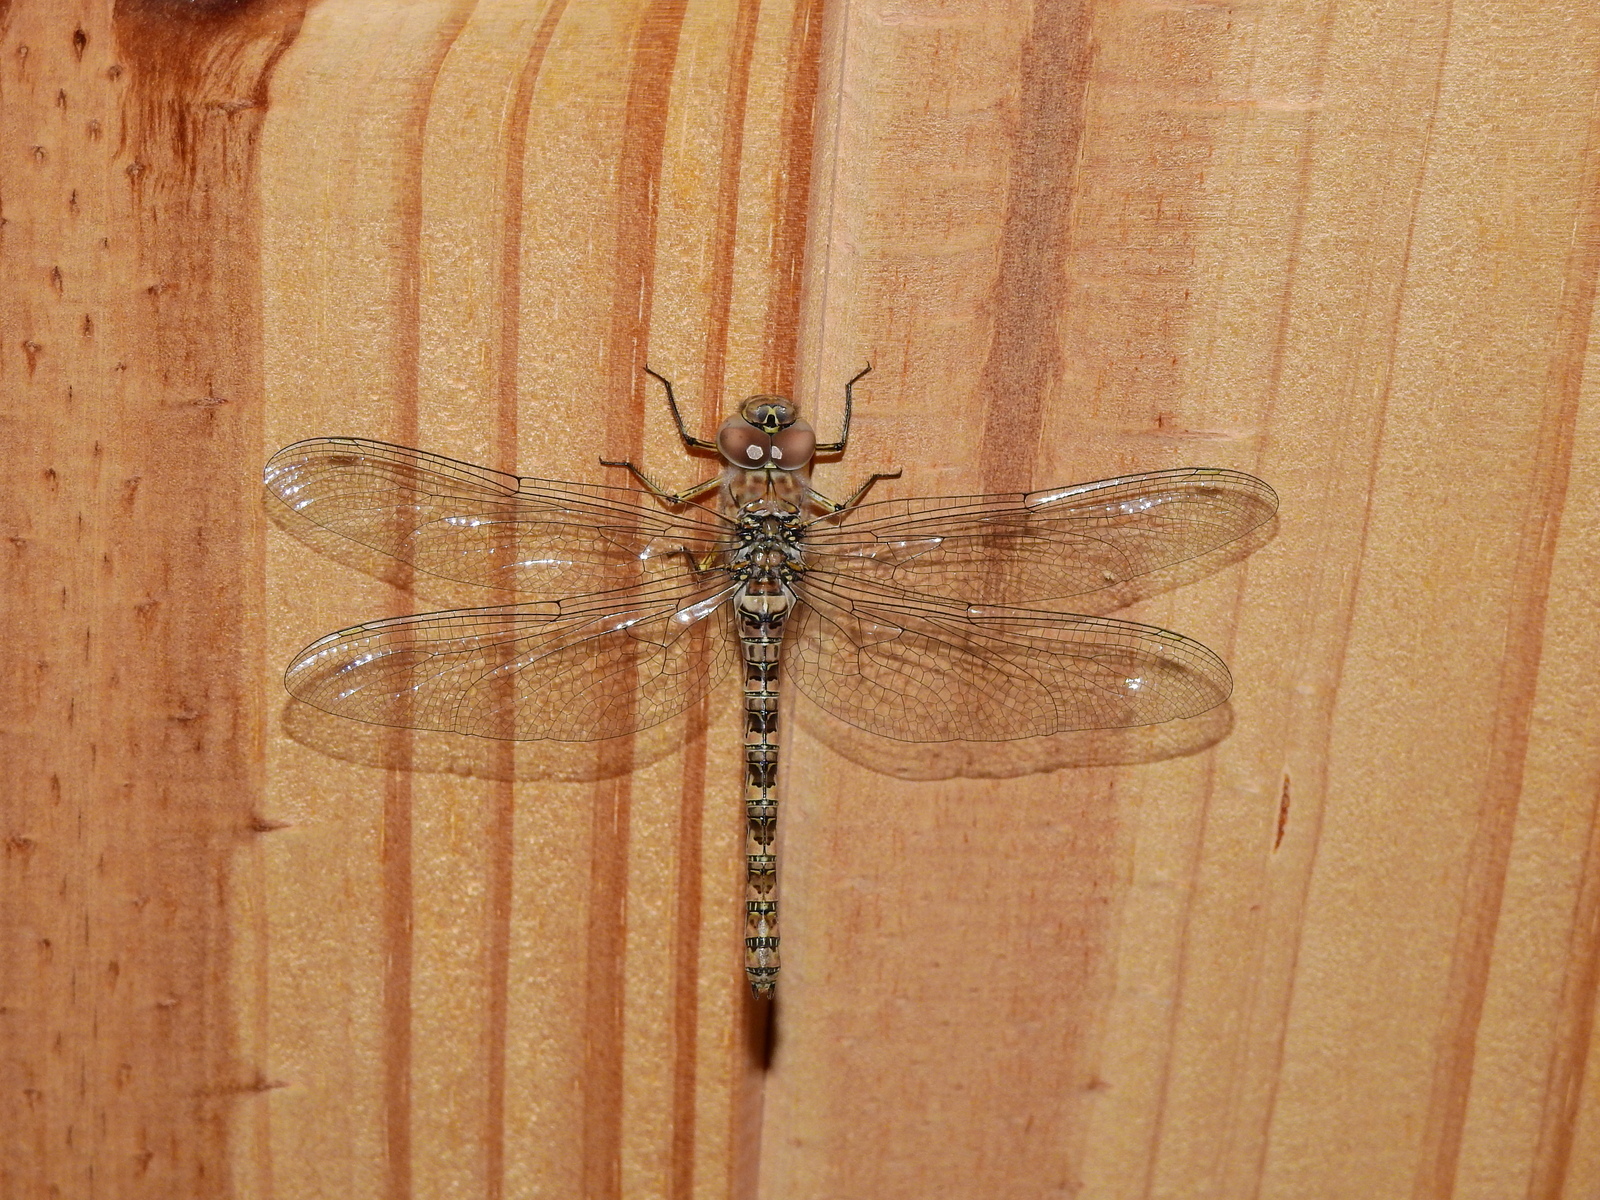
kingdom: Animalia
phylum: Arthropoda
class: Insecta
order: Odonata
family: Aeshnidae
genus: Rhionaeschna
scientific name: Rhionaeschna pallipes
